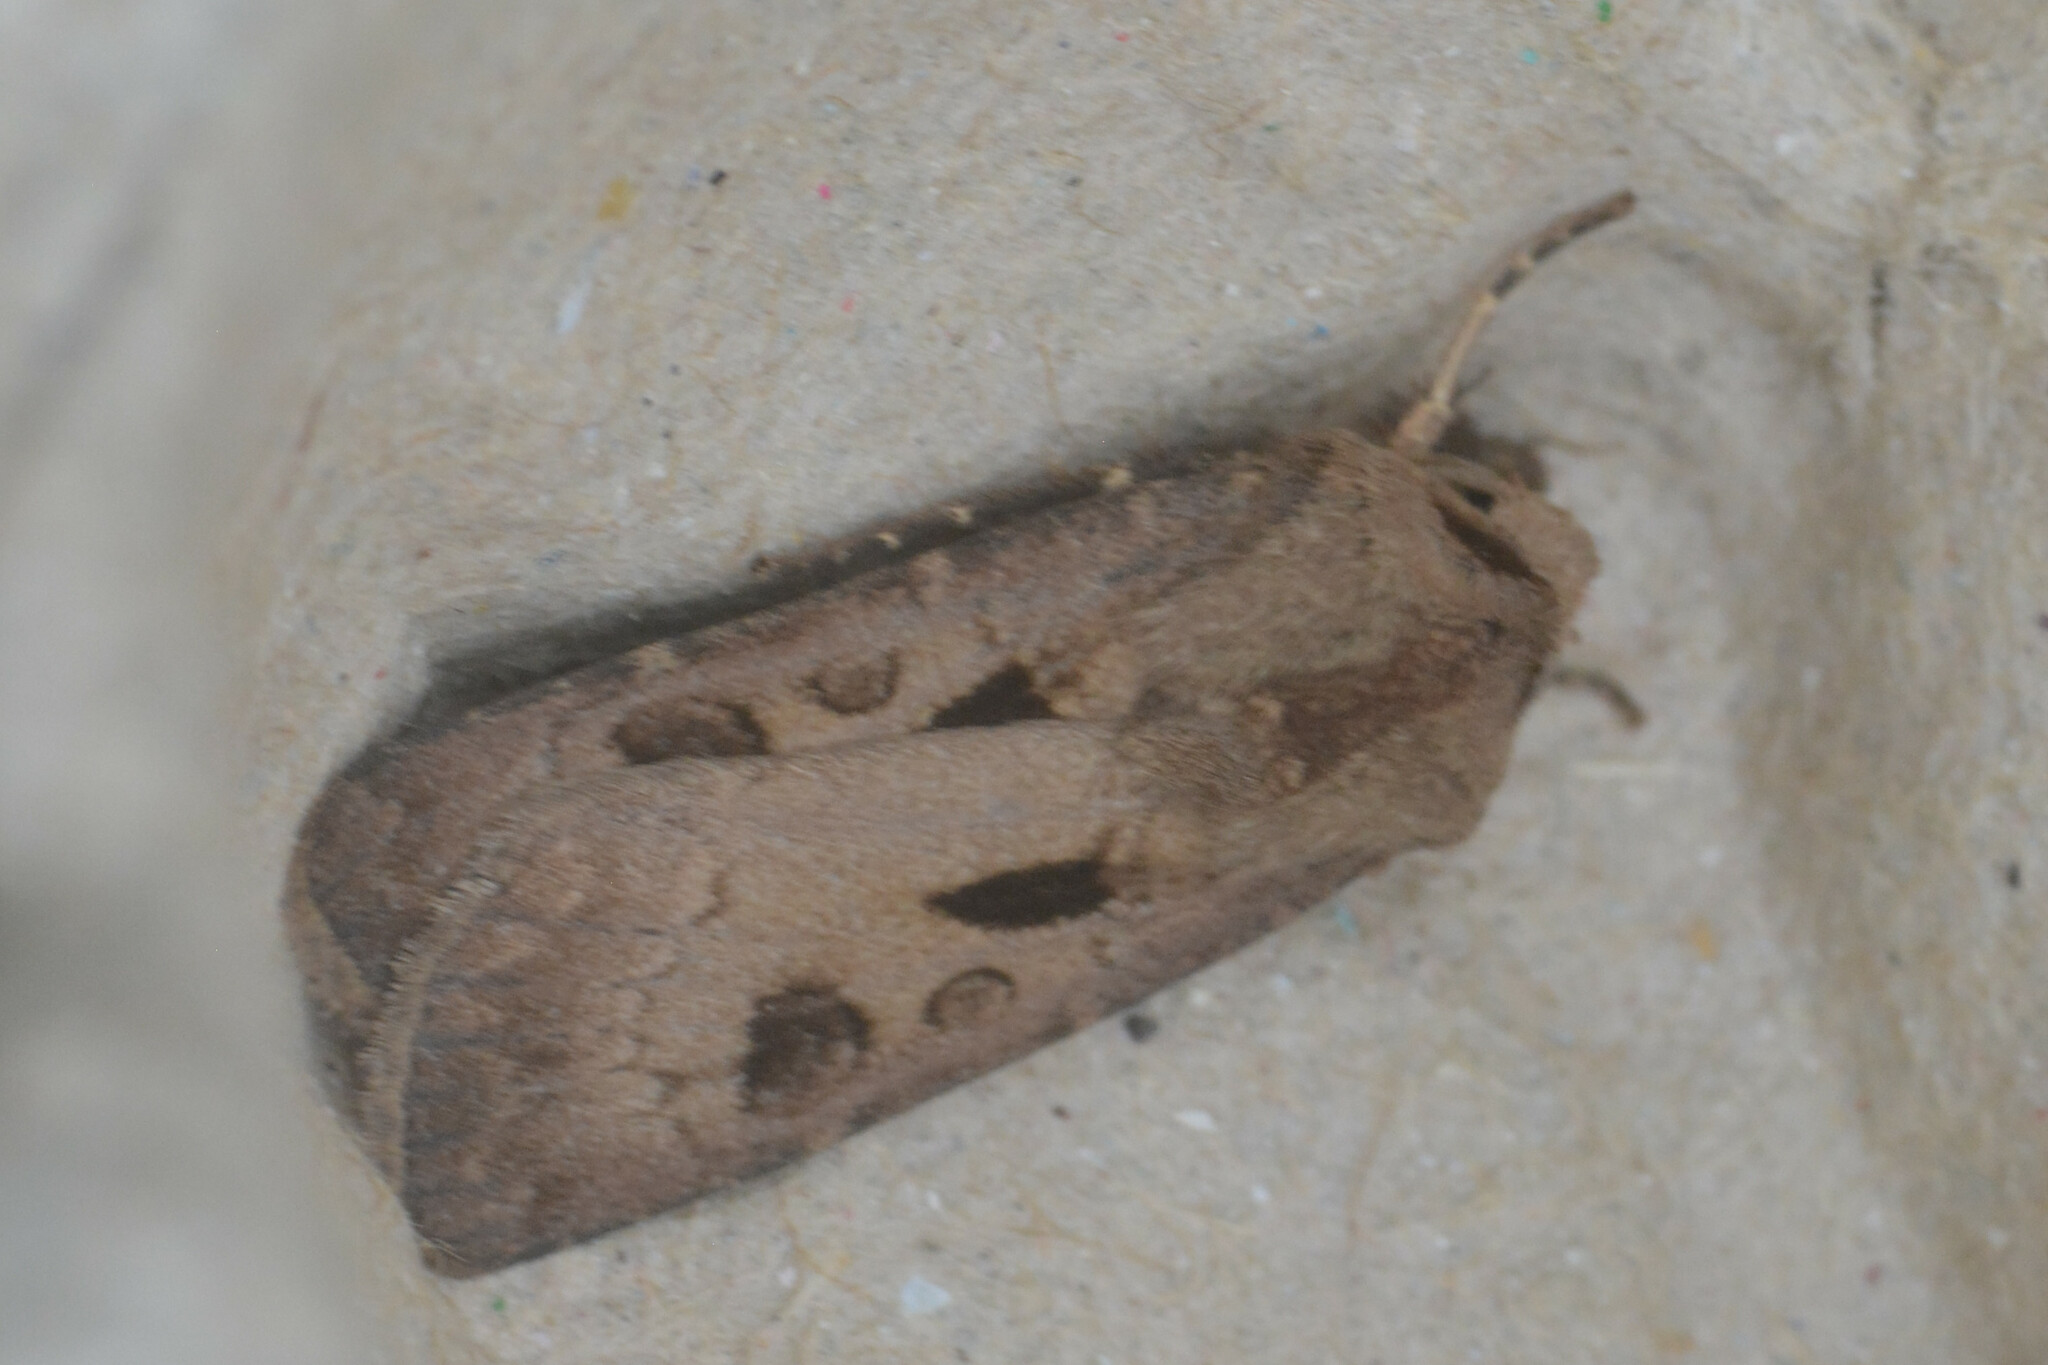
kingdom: Animalia
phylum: Arthropoda
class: Insecta
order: Lepidoptera
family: Noctuidae
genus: Agrotis
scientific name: Agrotis exclamationis
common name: Heart and dart
